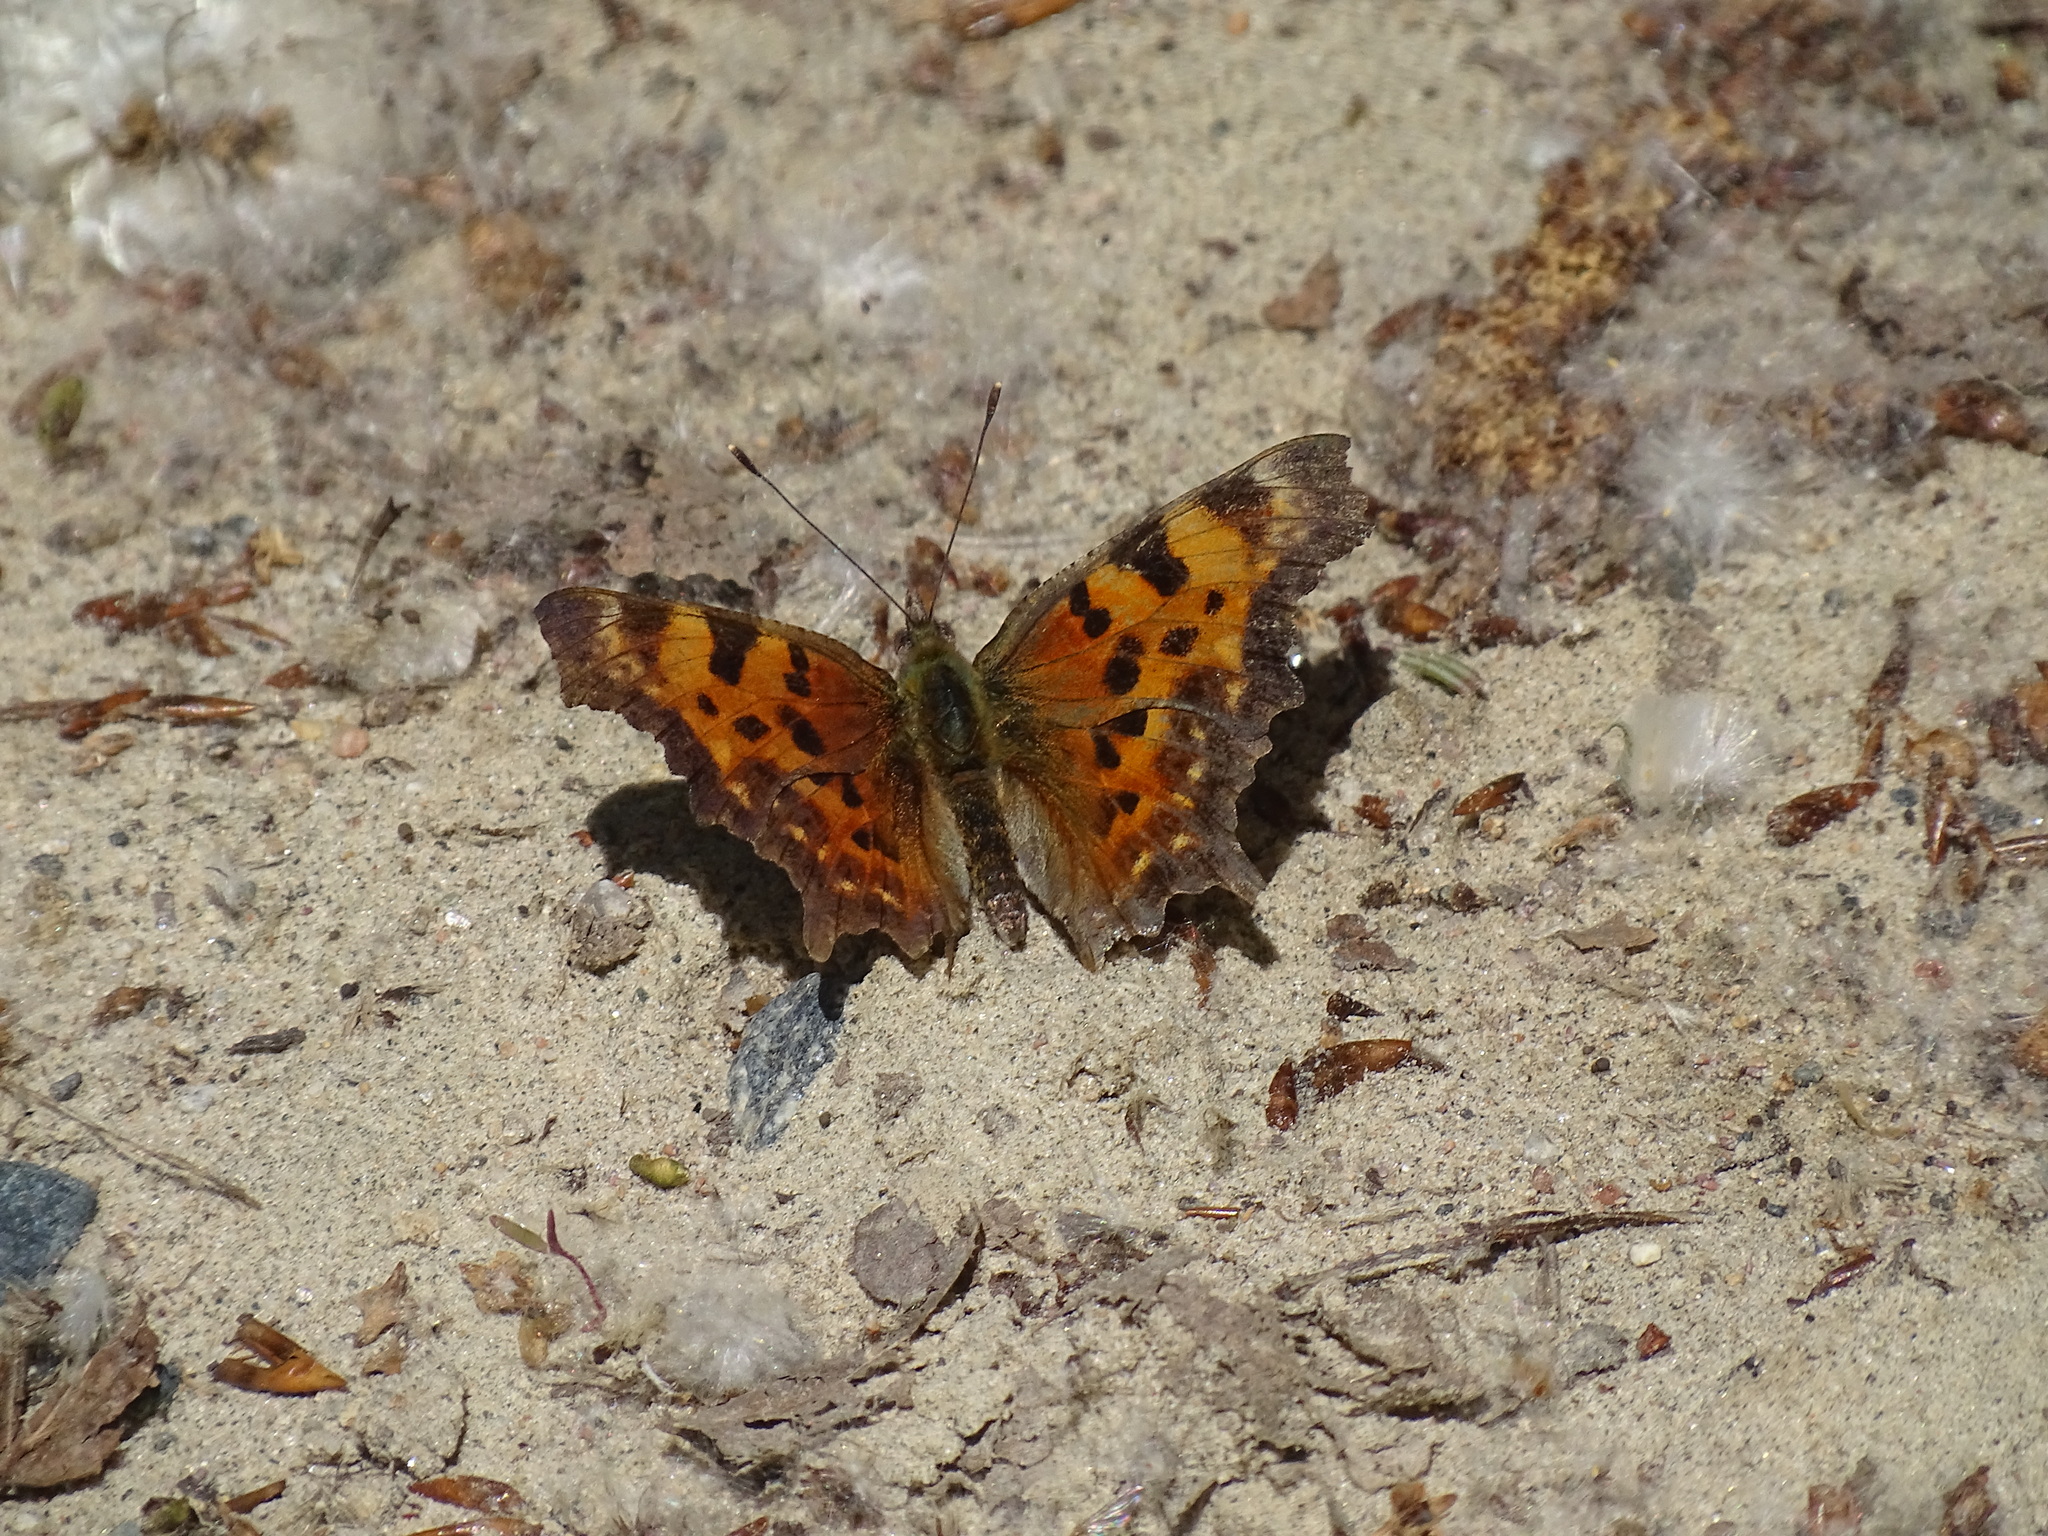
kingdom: Animalia
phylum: Arthropoda
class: Insecta
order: Lepidoptera
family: Nymphalidae
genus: Polygonia
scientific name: Polygonia faunus
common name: Green comma
